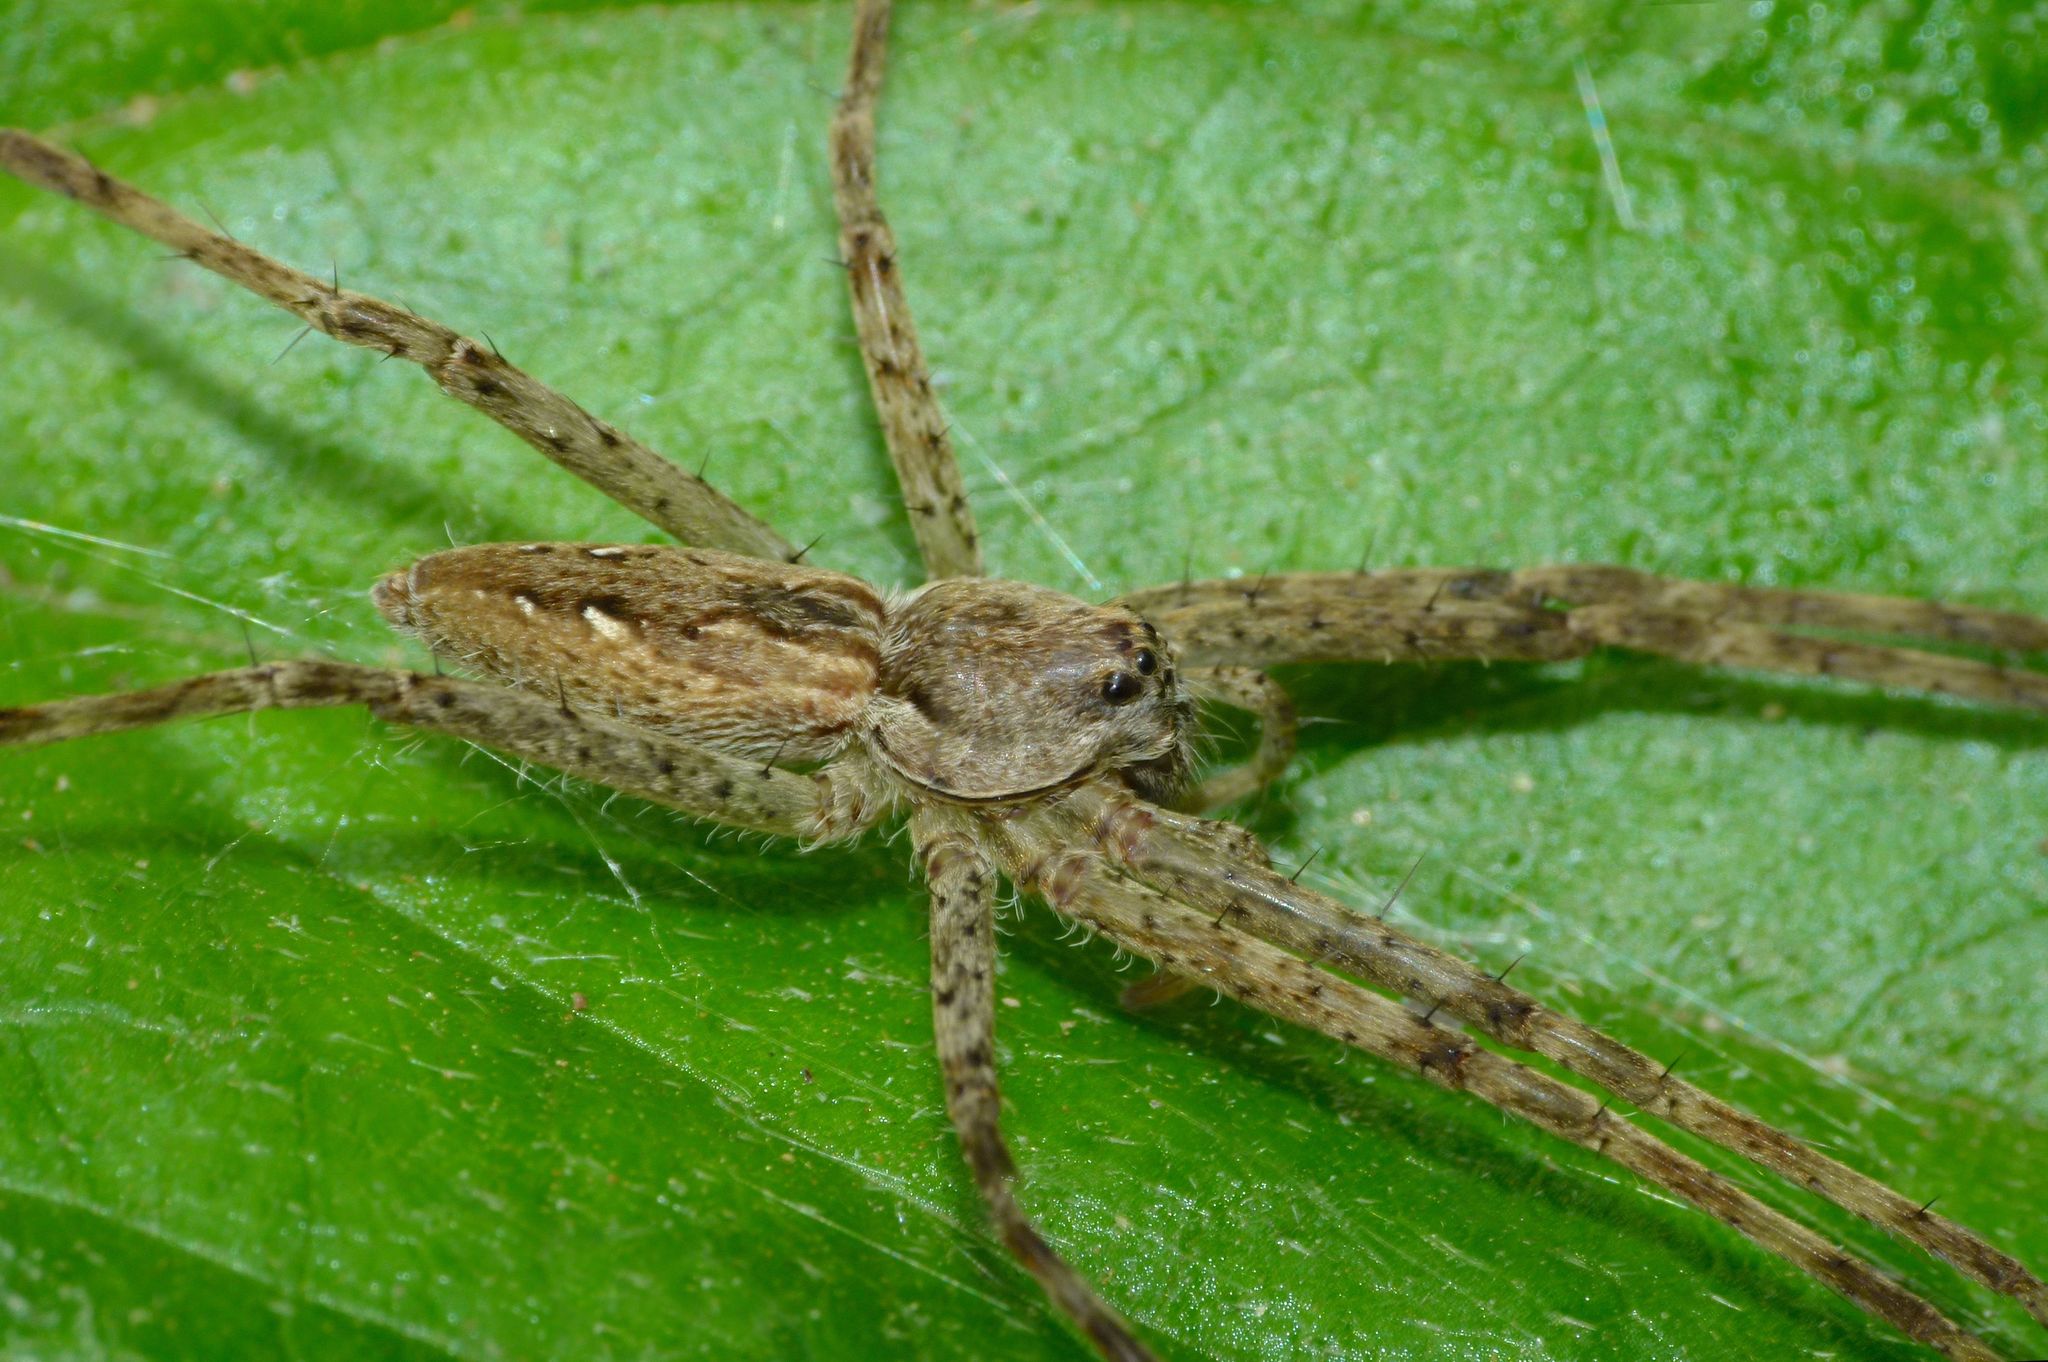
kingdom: Animalia
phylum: Arthropoda
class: Arachnida
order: Araneae
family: Pisauridae
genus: Megadolomedes
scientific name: Megadolomedes trux
